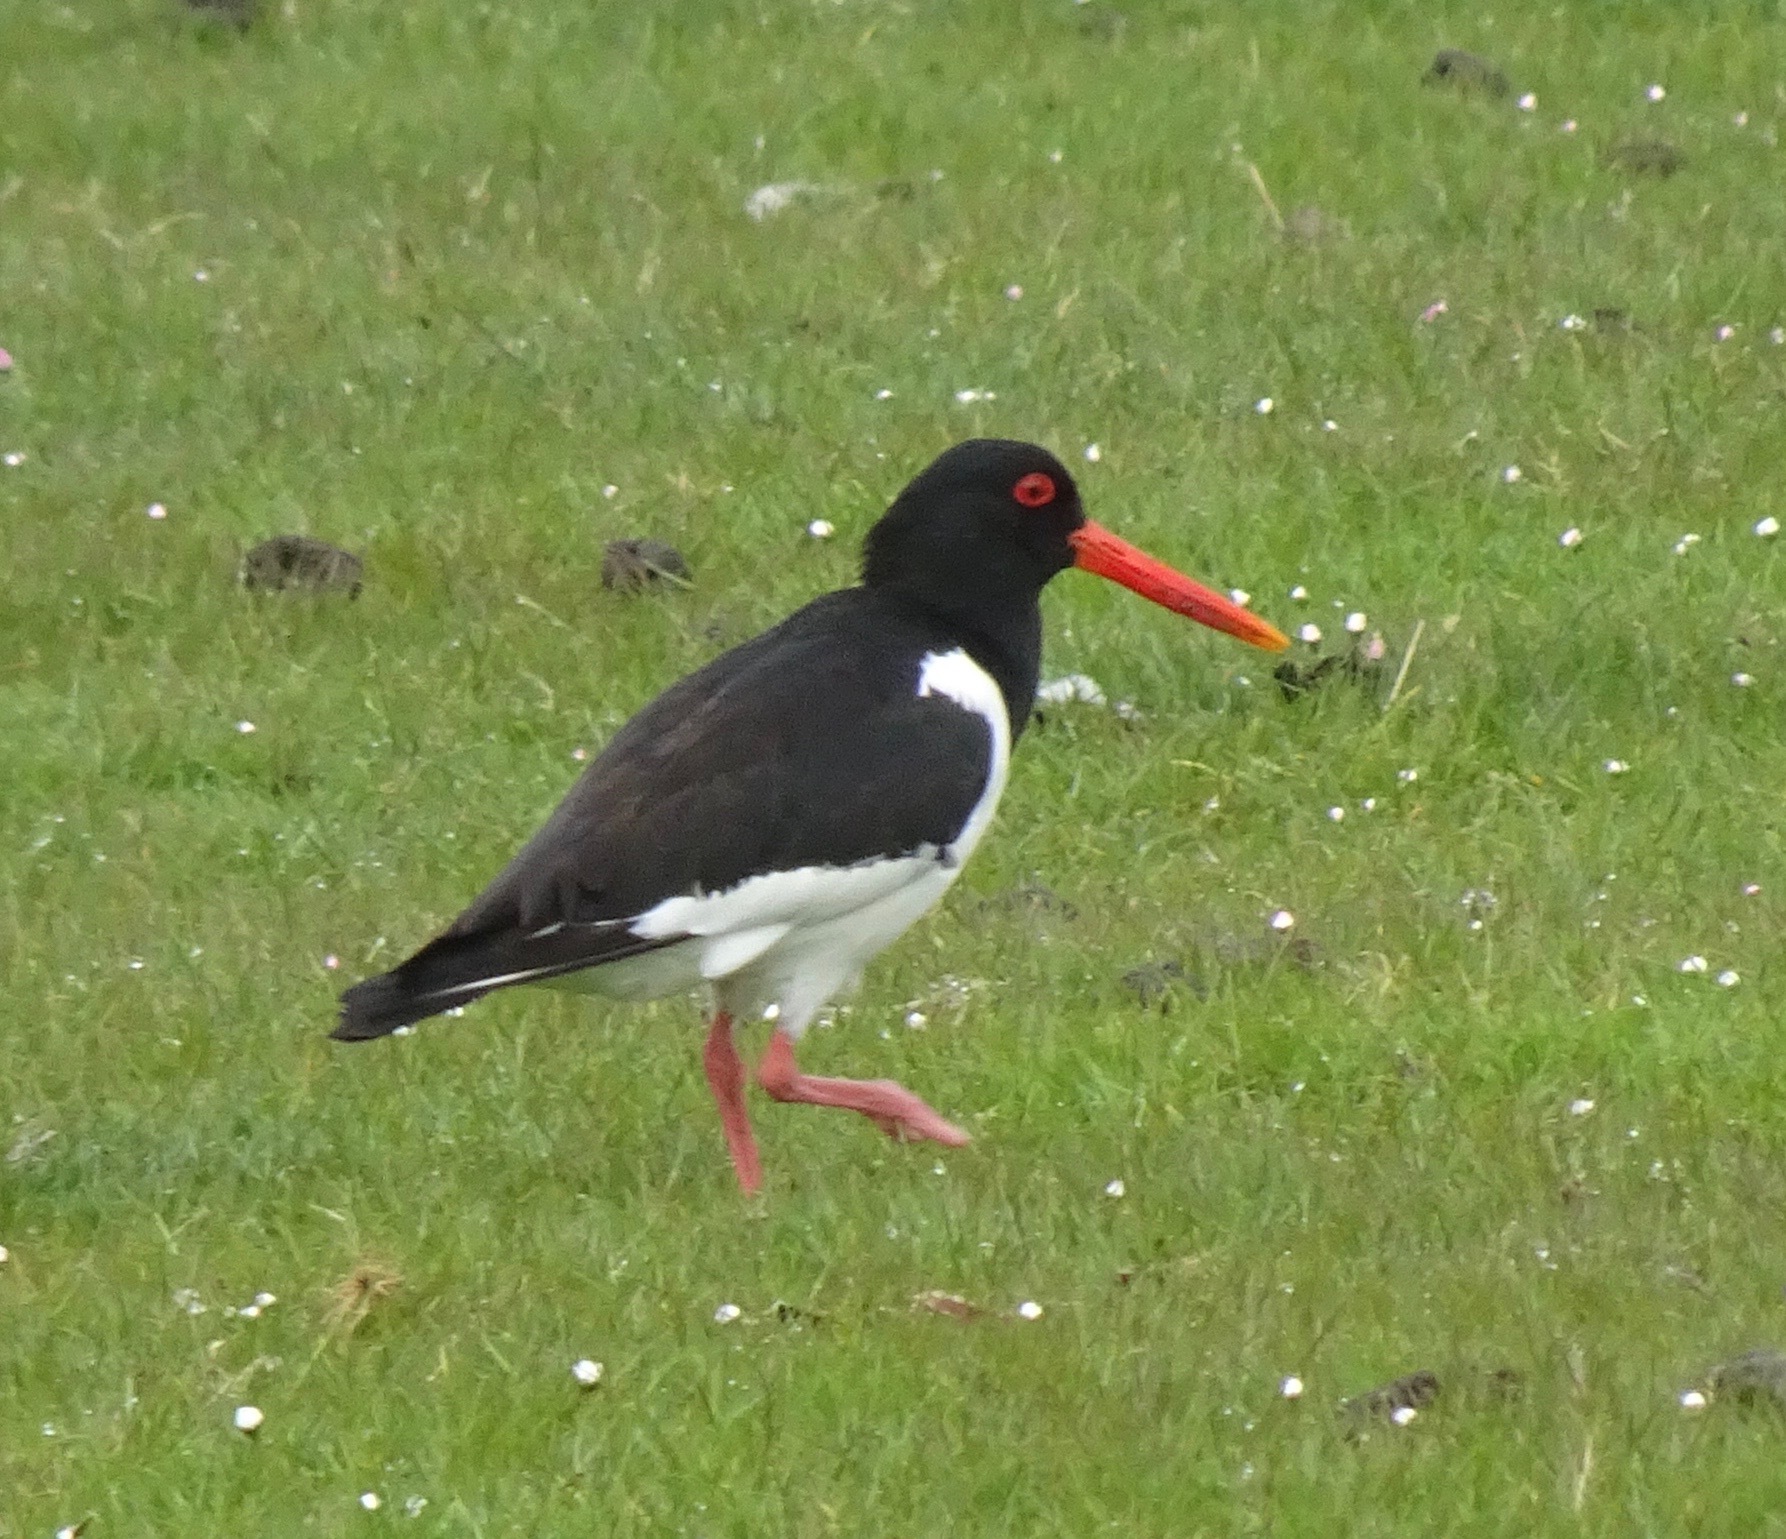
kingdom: Animalia
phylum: Chordata
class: Aves
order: Charadriiformes
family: Haematopodidae
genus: Haematopus
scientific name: Haematopus ostralegus
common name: Eurasian oystercatcher
